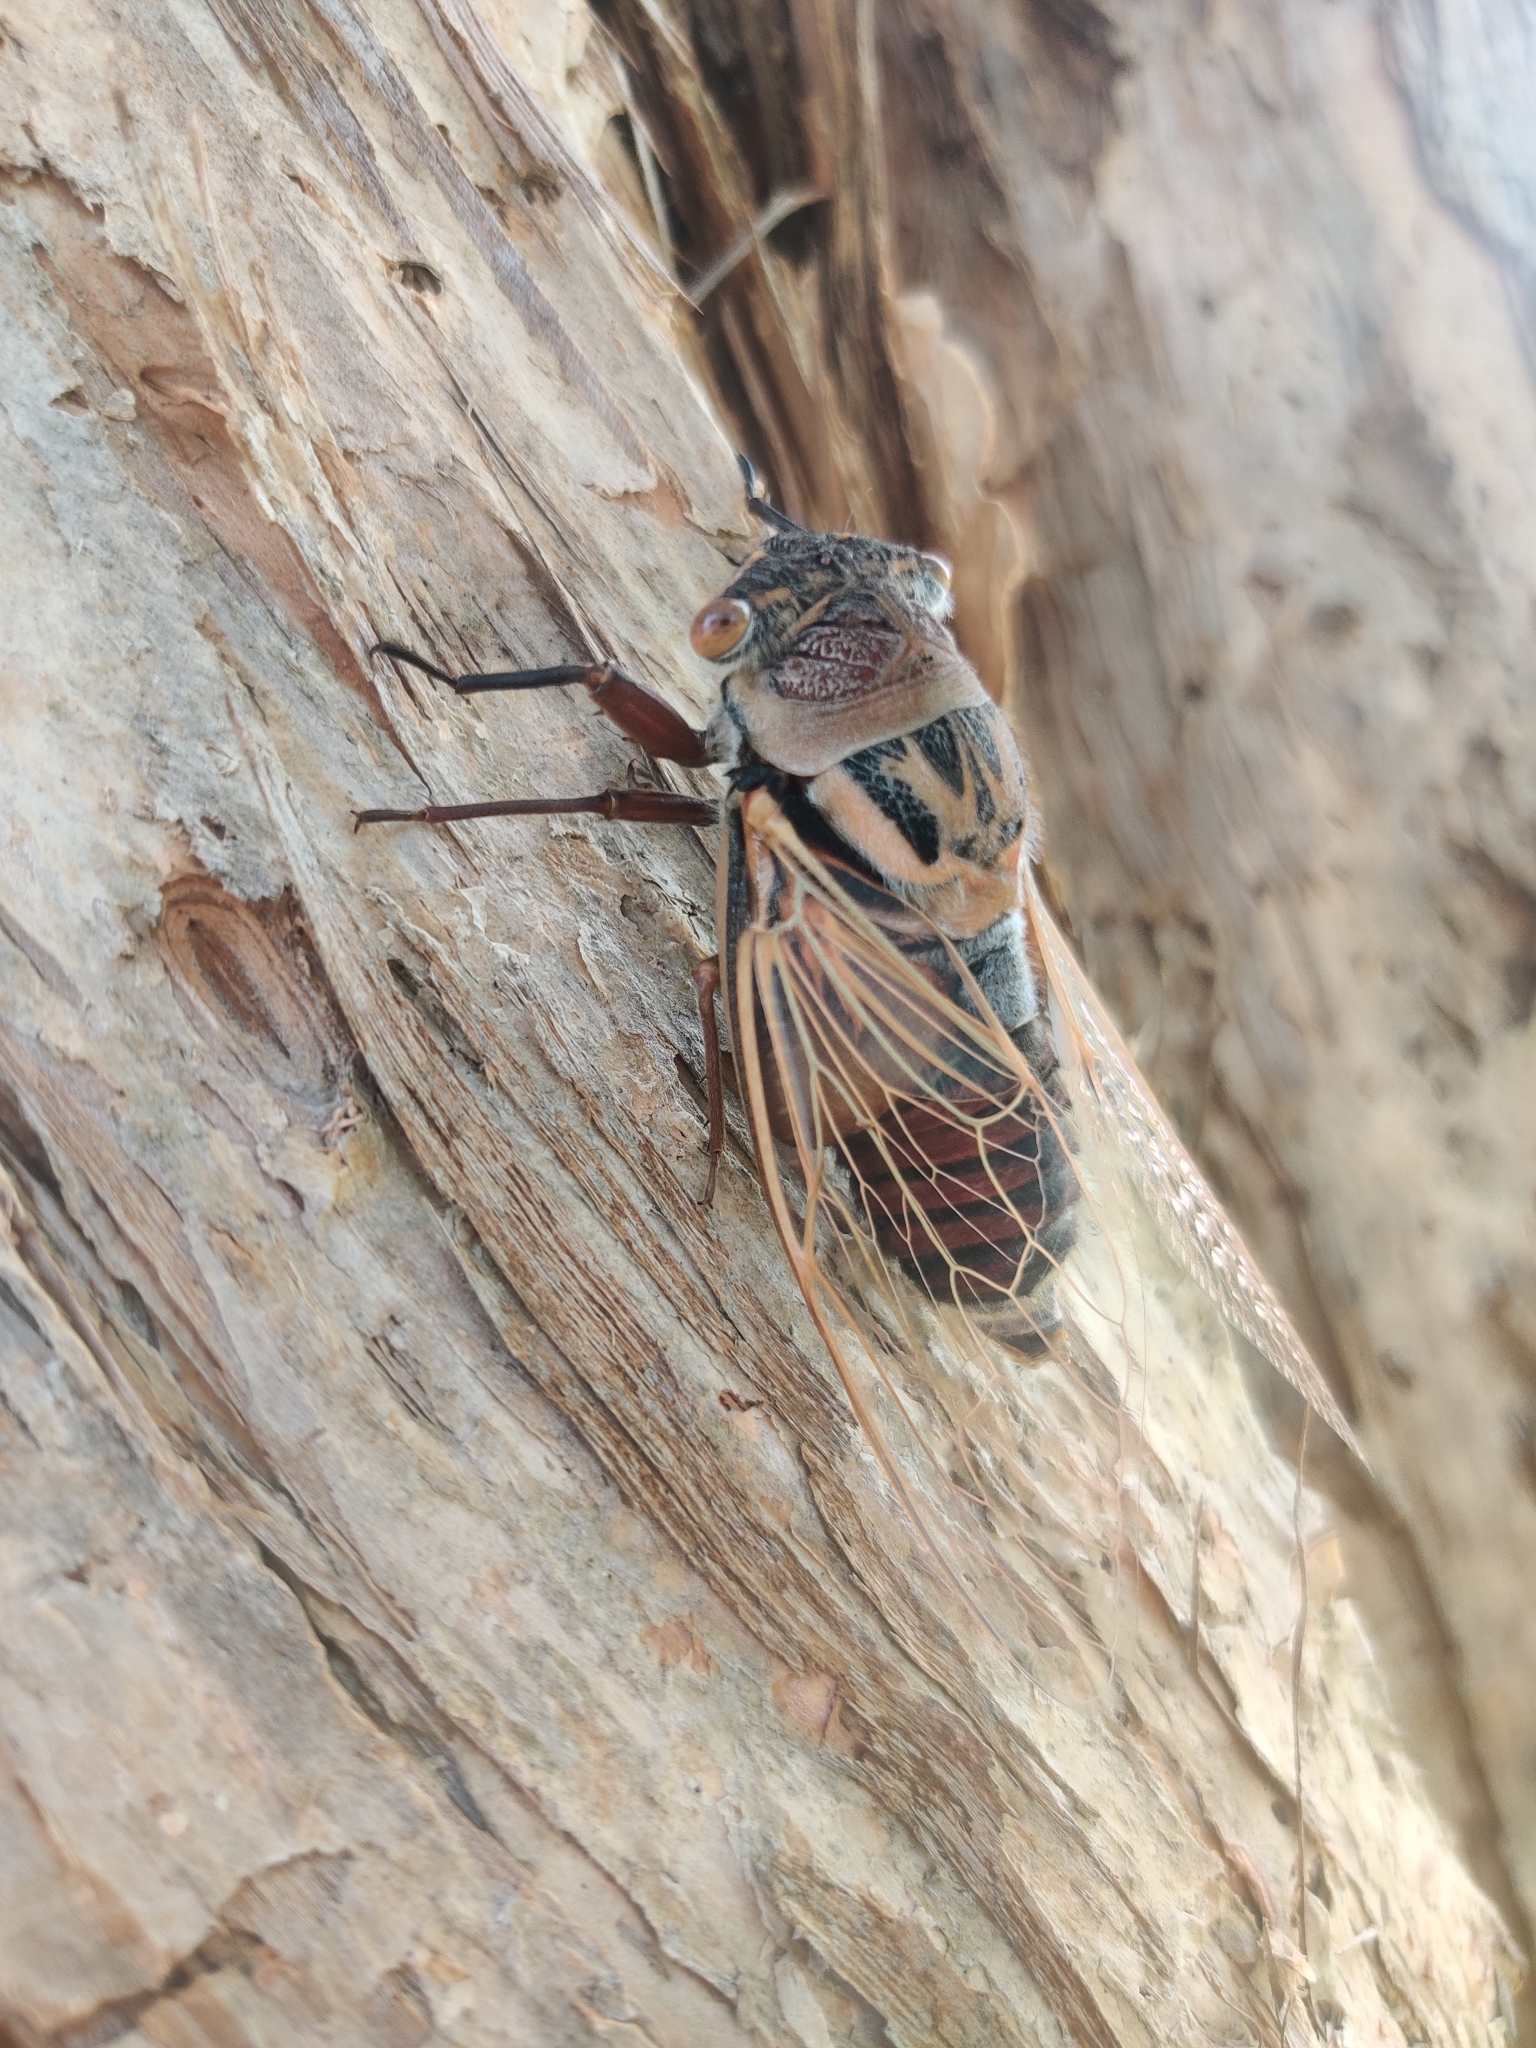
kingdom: Animalia
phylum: Arthropoda
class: Insecta
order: Hemiptera
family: Cicadidae
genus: Thopha
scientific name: Thopha saccata
